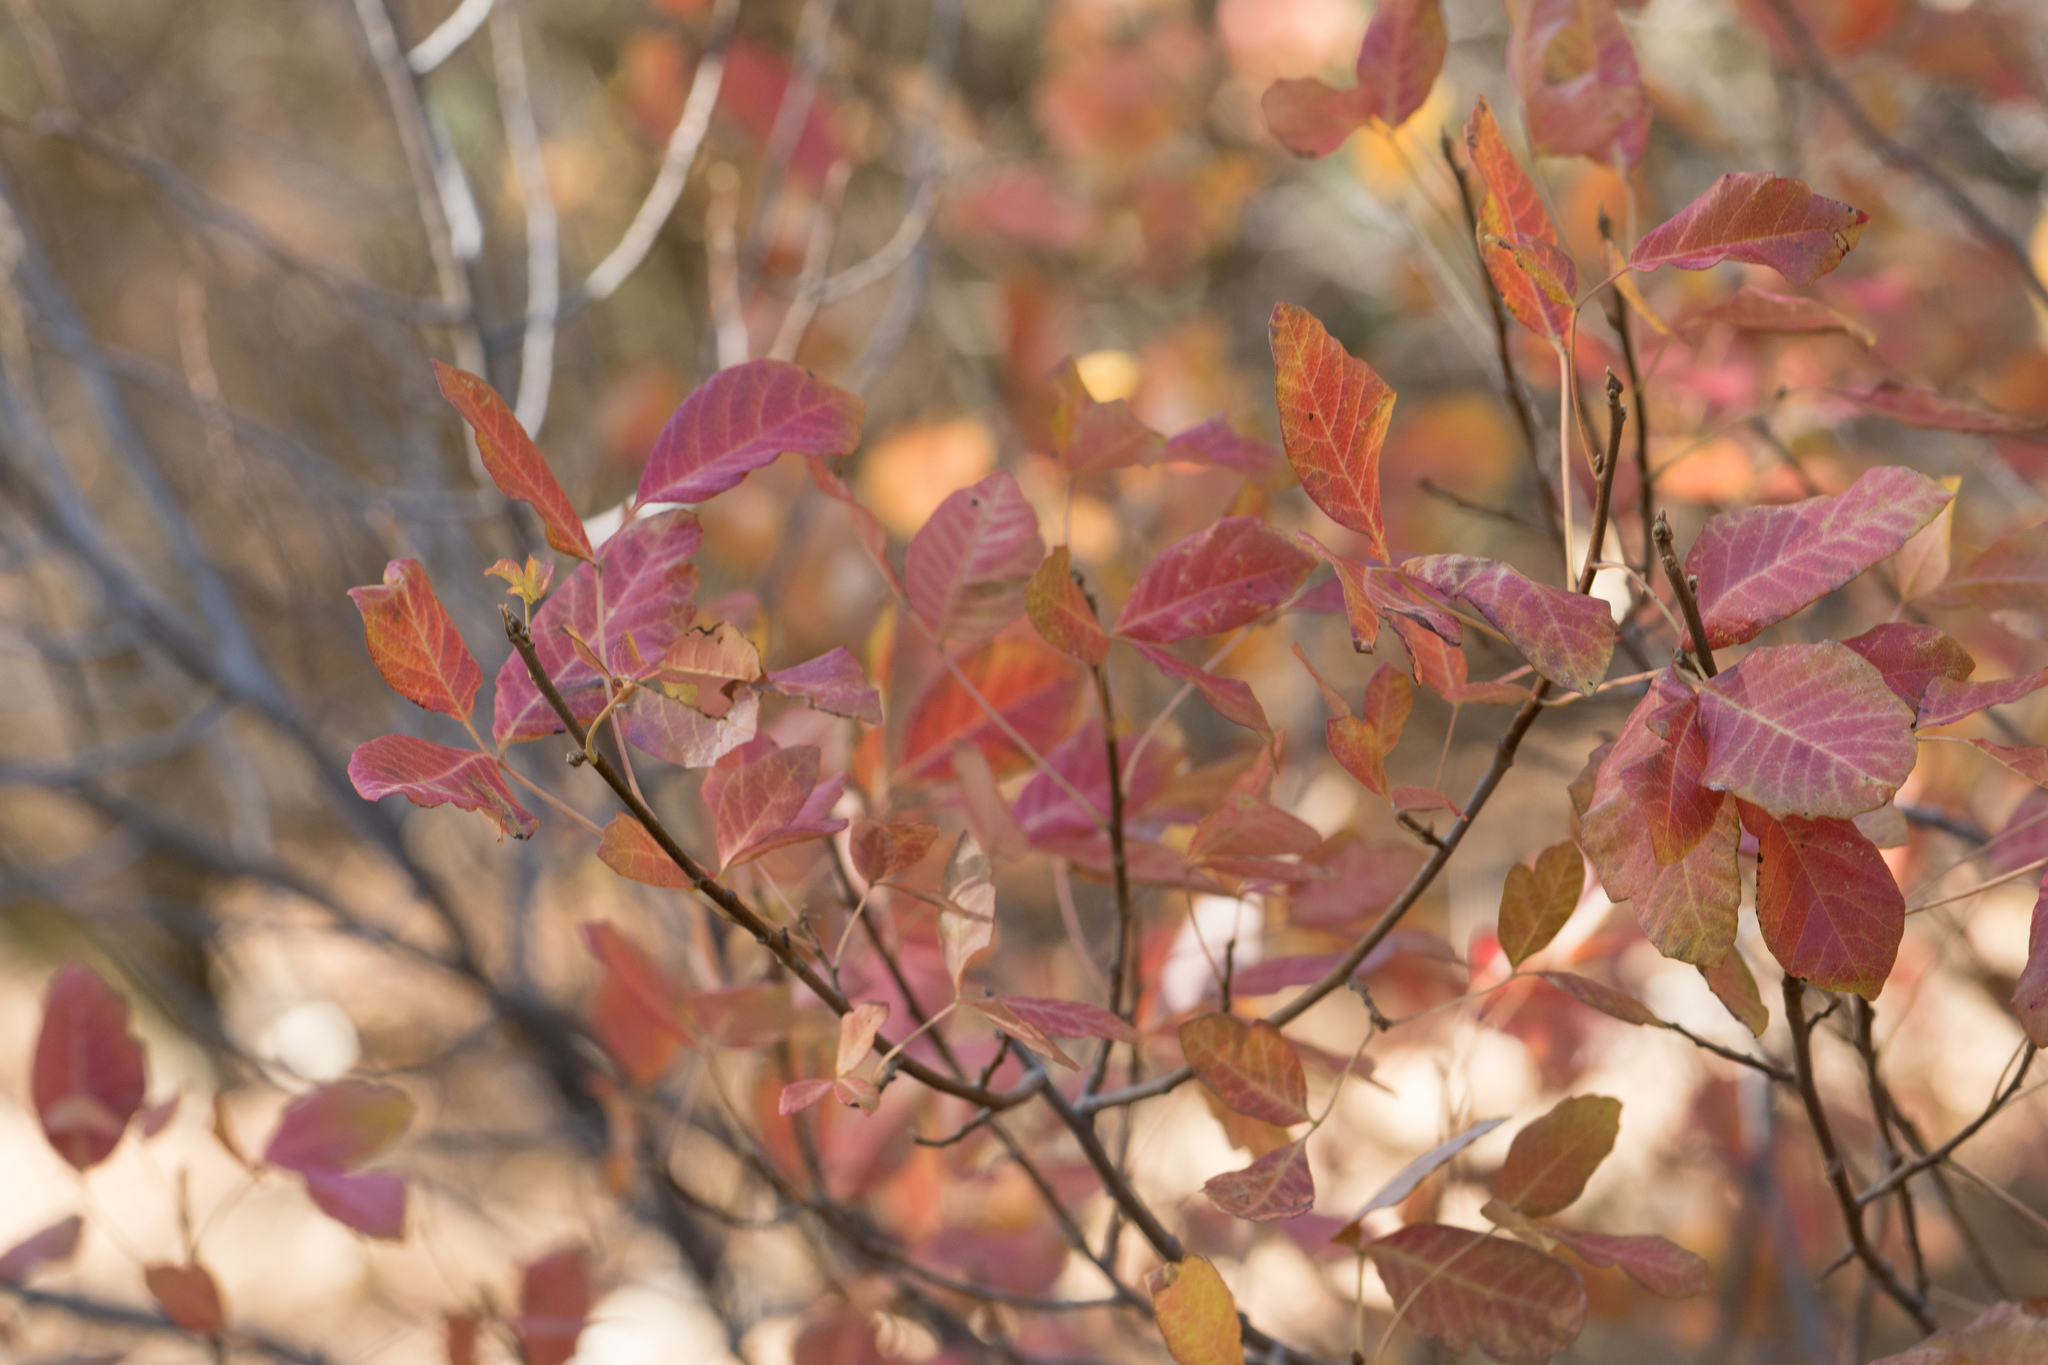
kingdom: Plantae
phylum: Tracheophyta
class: Magnoliopsida
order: Sapindales
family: Anacardiaceae
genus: Toxicodendron
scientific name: Toxicodendron diversilobum
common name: Pacific poison-oak
